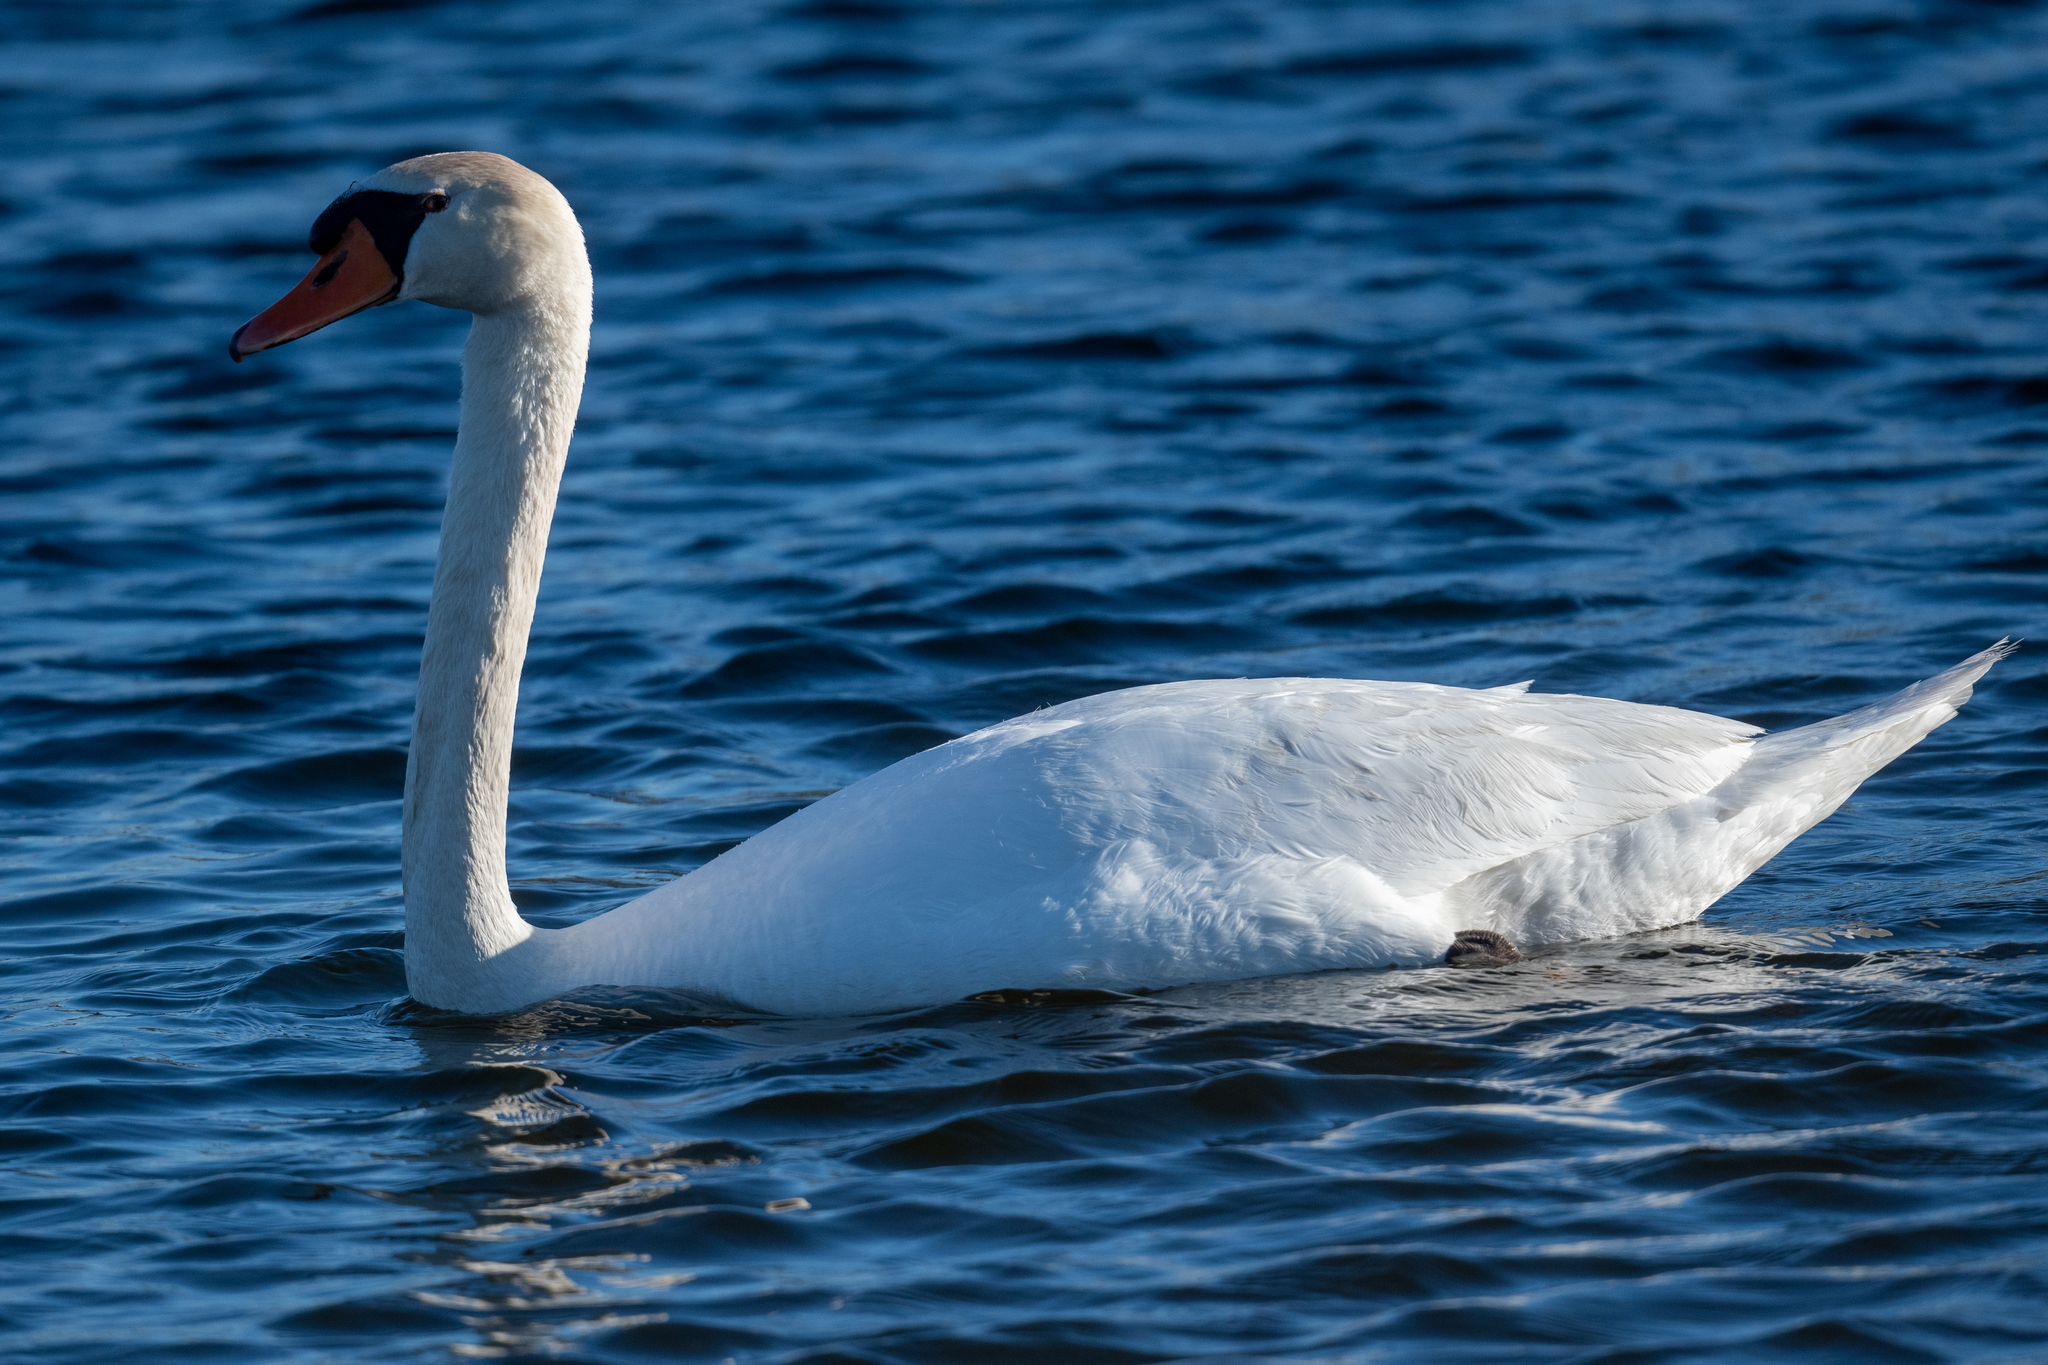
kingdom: Animalia
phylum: Chordata
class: Aves
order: Anseriformes
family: Anatidae
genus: Cygnus
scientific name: Cygnus olor
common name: Mute swan
